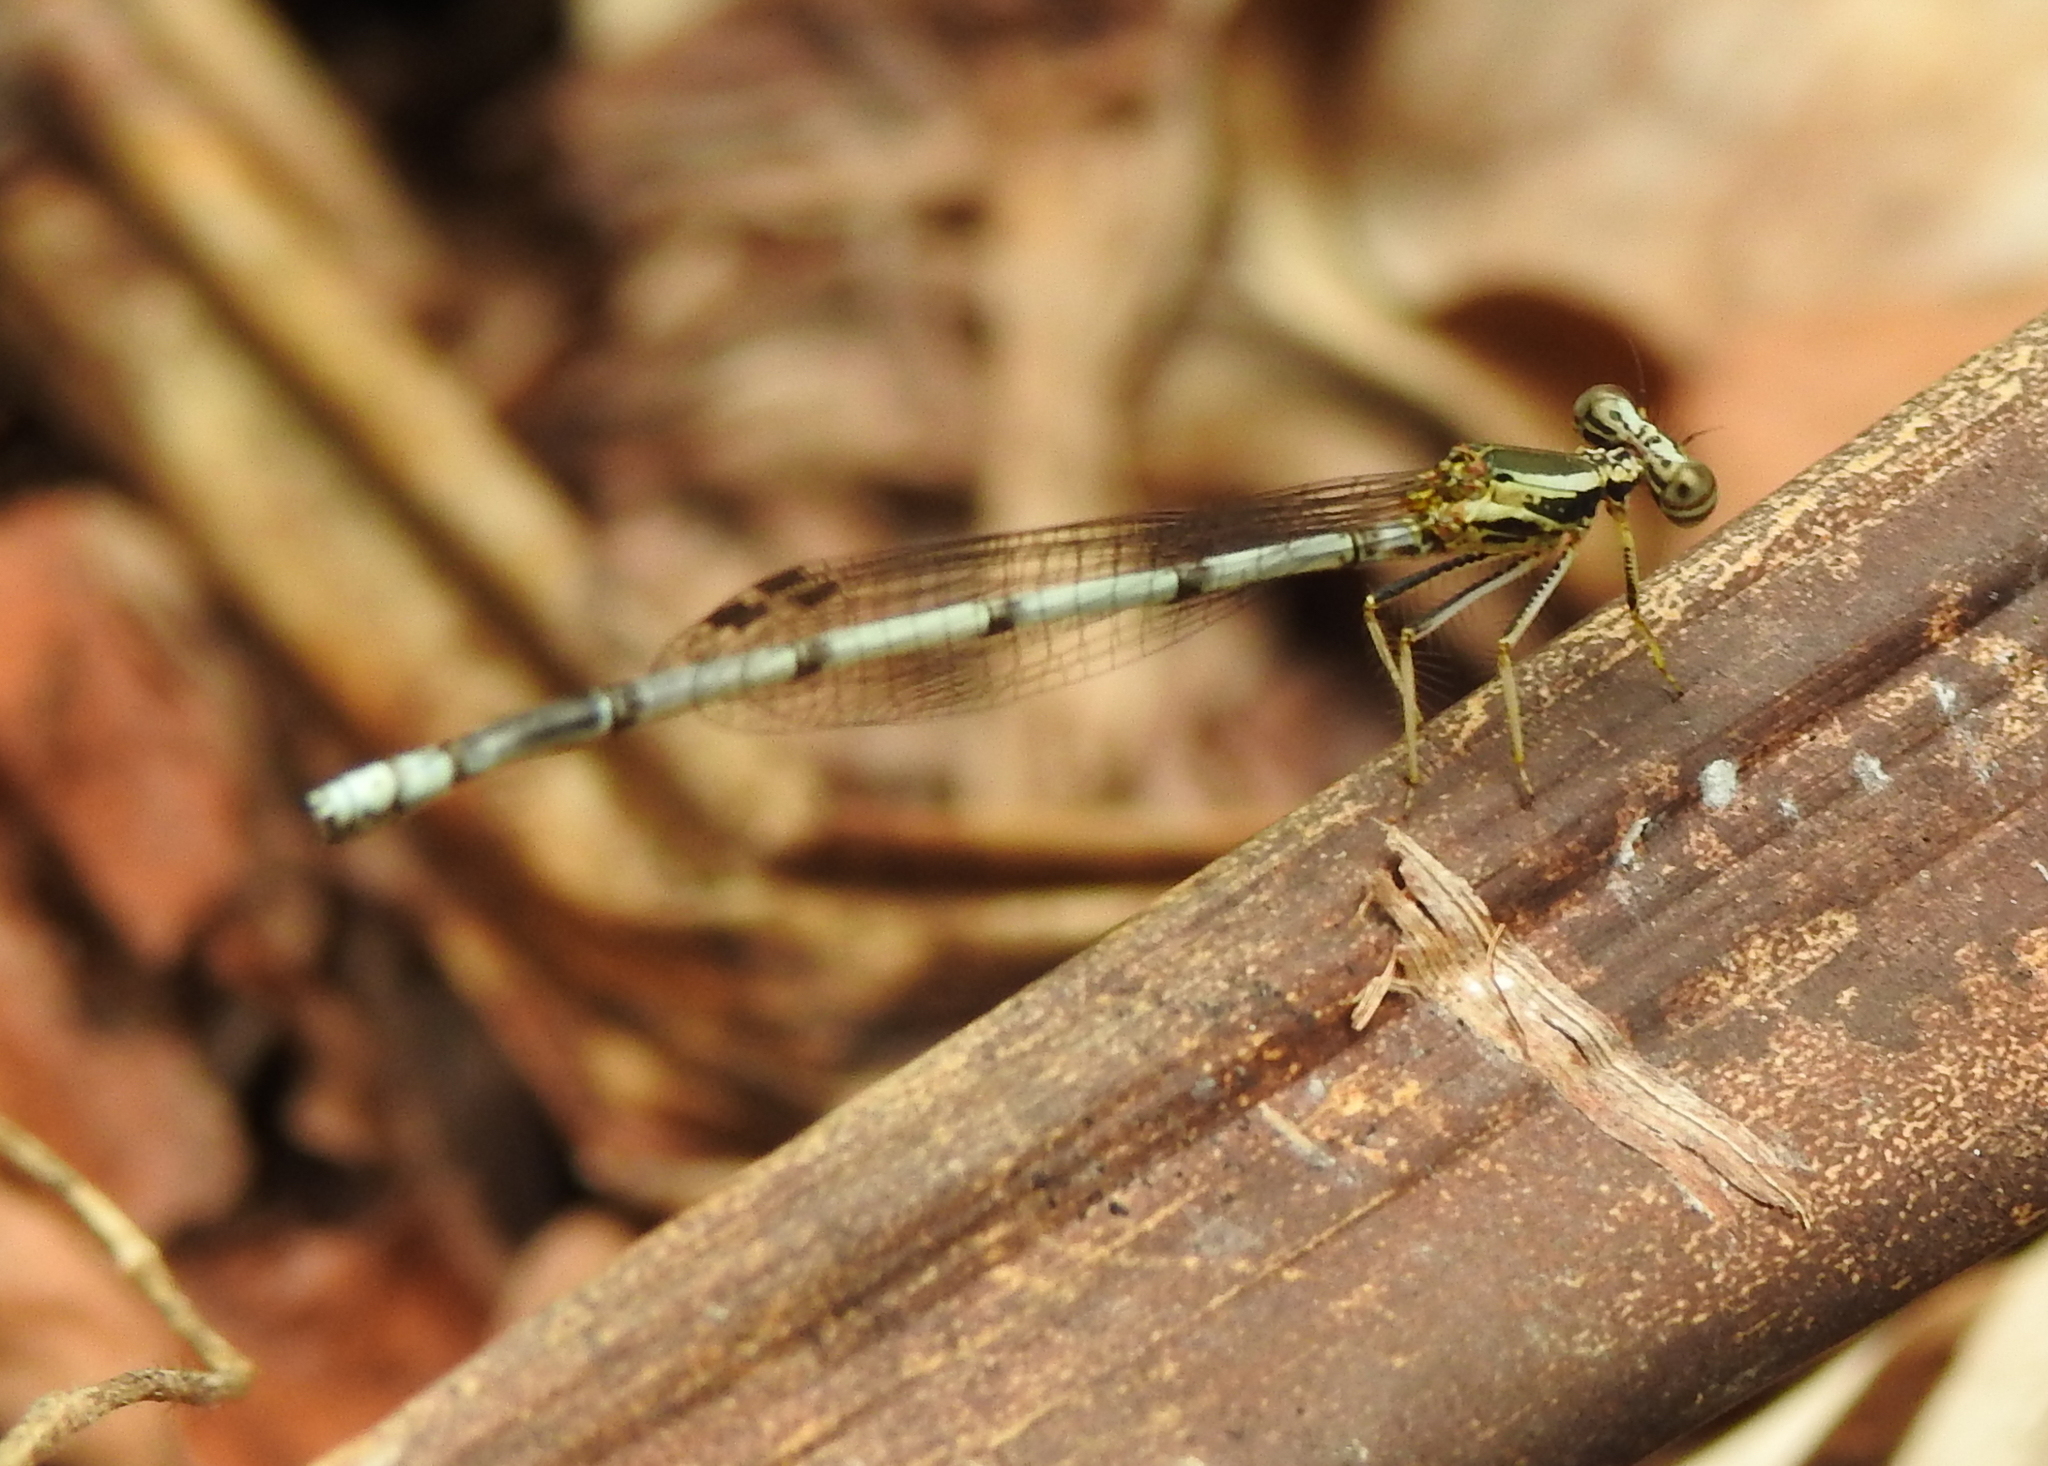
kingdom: Animalia
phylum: Arthropoda
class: Insecta
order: Odonata
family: Platycnemididae
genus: Copera
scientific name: Copera marginipes
